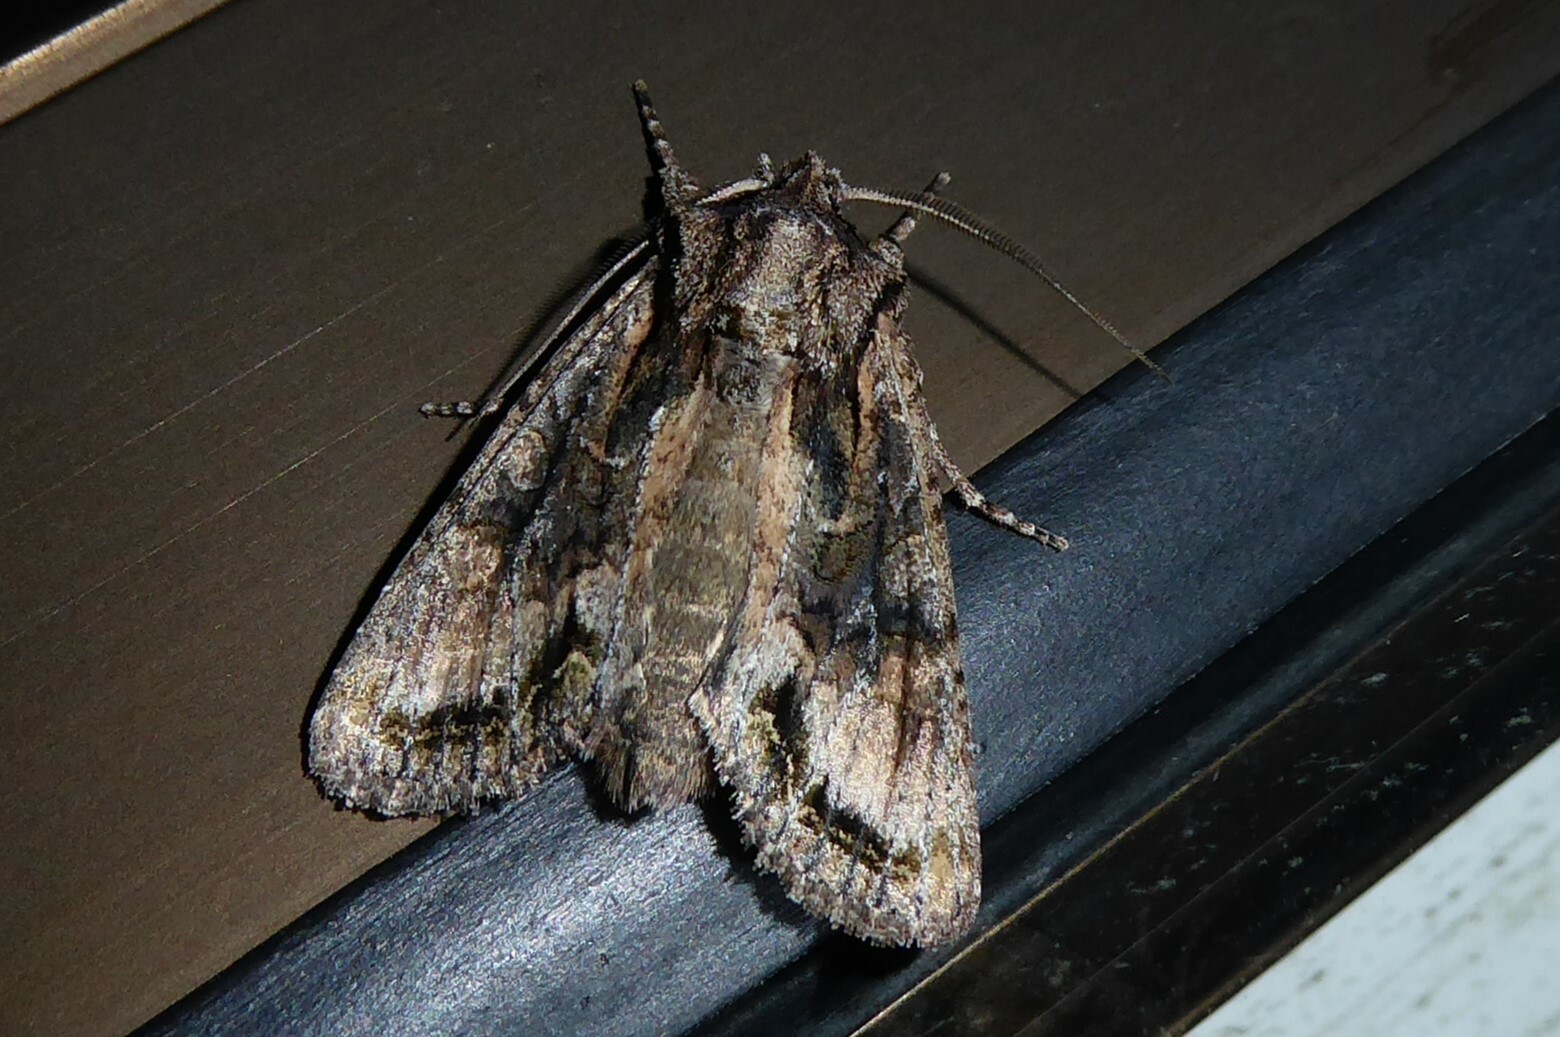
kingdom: Animalia
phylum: Arthropoda
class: Insecta
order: Lepidoptera
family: Noctuidae
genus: Ichneutica
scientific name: Ichneutica mutans
